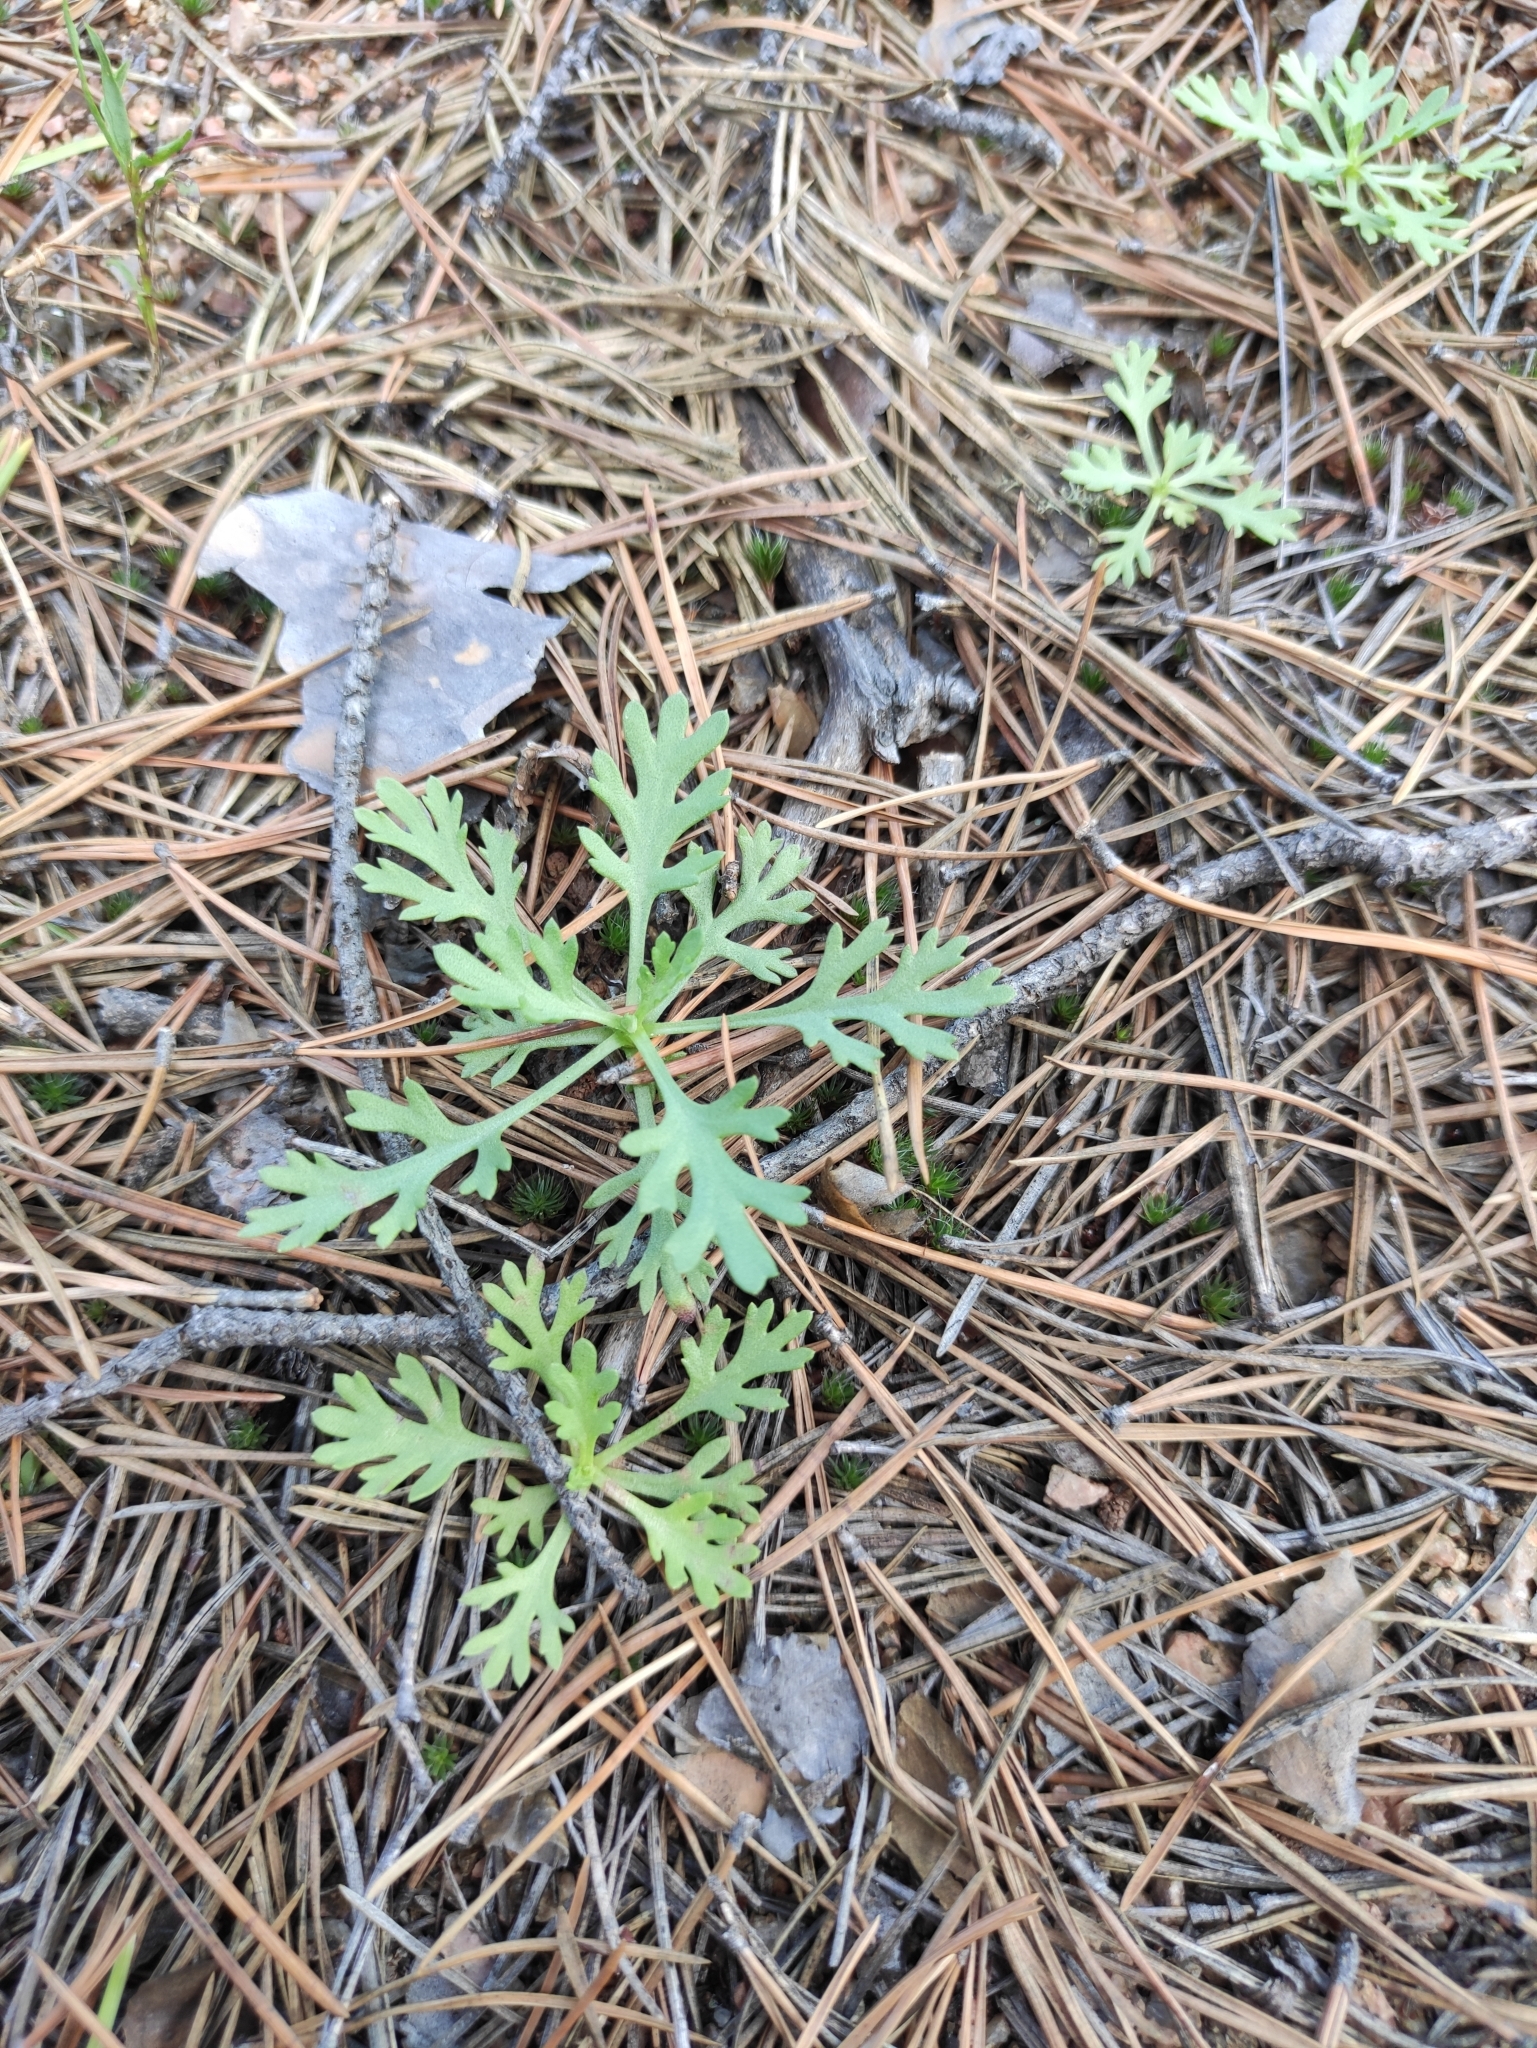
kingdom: Plantae
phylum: Tracheophyta
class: Magnoliopsida
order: Asterales
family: Asteraceae
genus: Chrysanthemum
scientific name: Chrysanthemum zawadzkii
